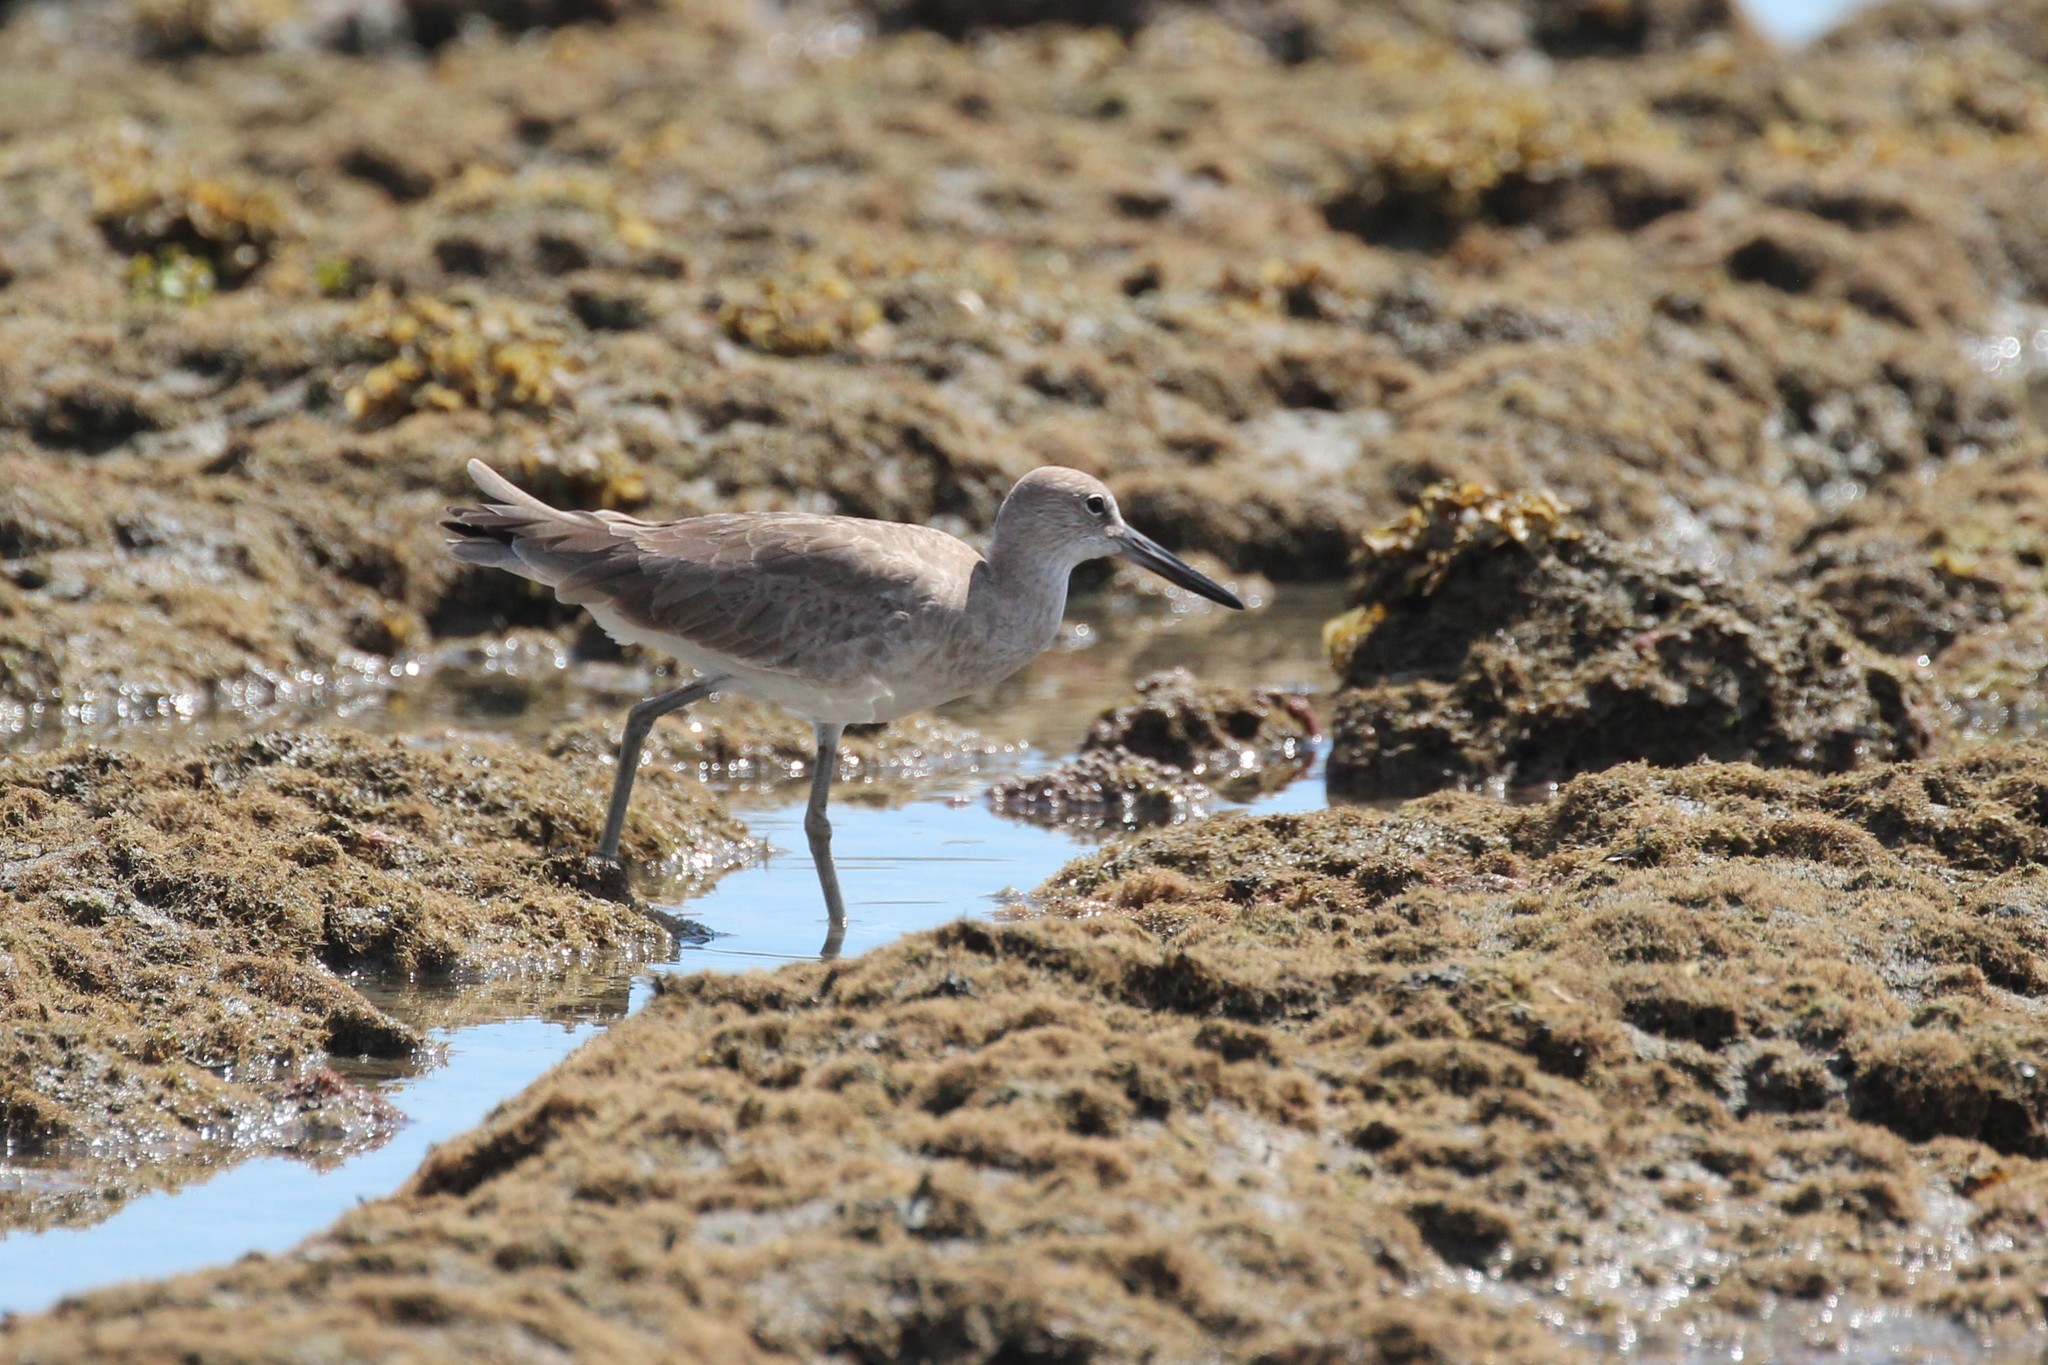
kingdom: Animalia
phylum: Chordata
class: Aves
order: Charadriiformes
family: Scolopacidae
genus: Tringa
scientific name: Tringa semipalmata
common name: Willet
